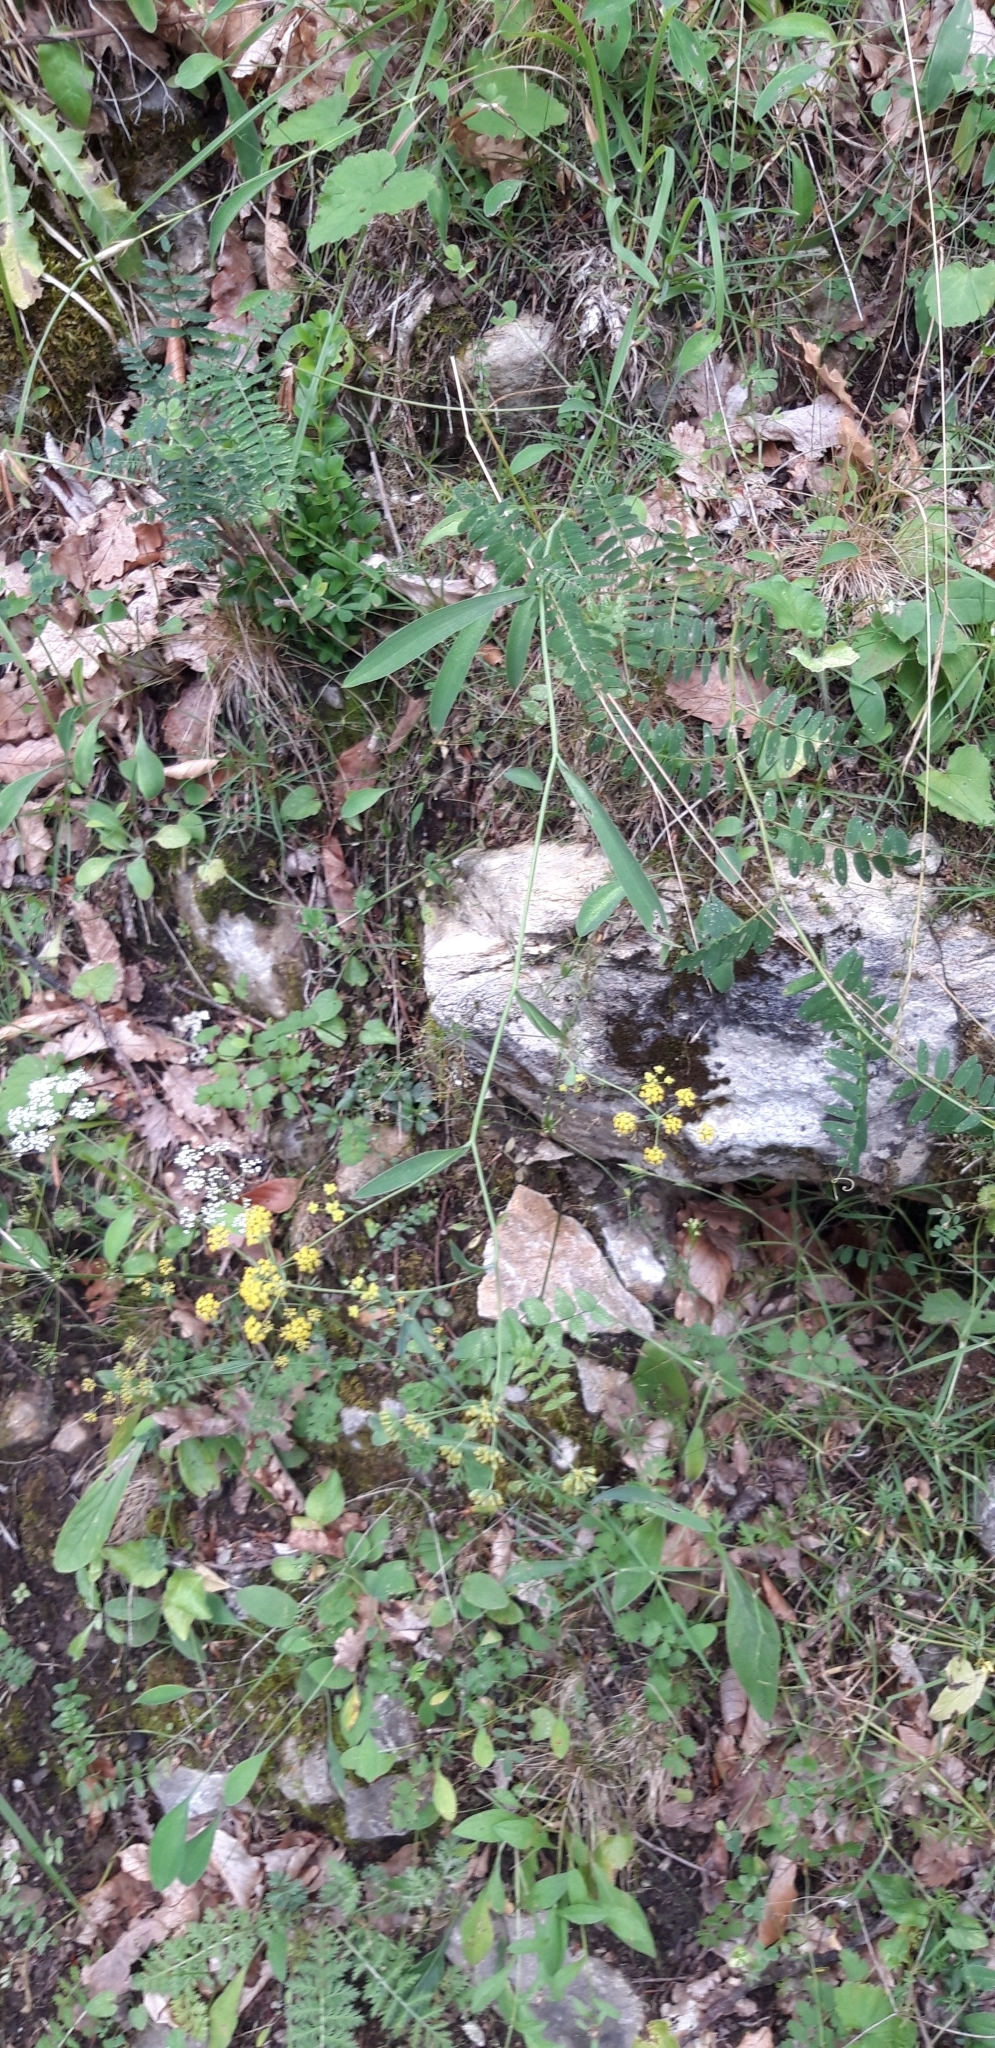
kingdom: Plantae
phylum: Tracheophyta
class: Magnoliopsida
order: Apiales
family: Apiaceae
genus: Bupleurum
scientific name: Bupleurum falcatum
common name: Sickle-leaved hare's-ear
